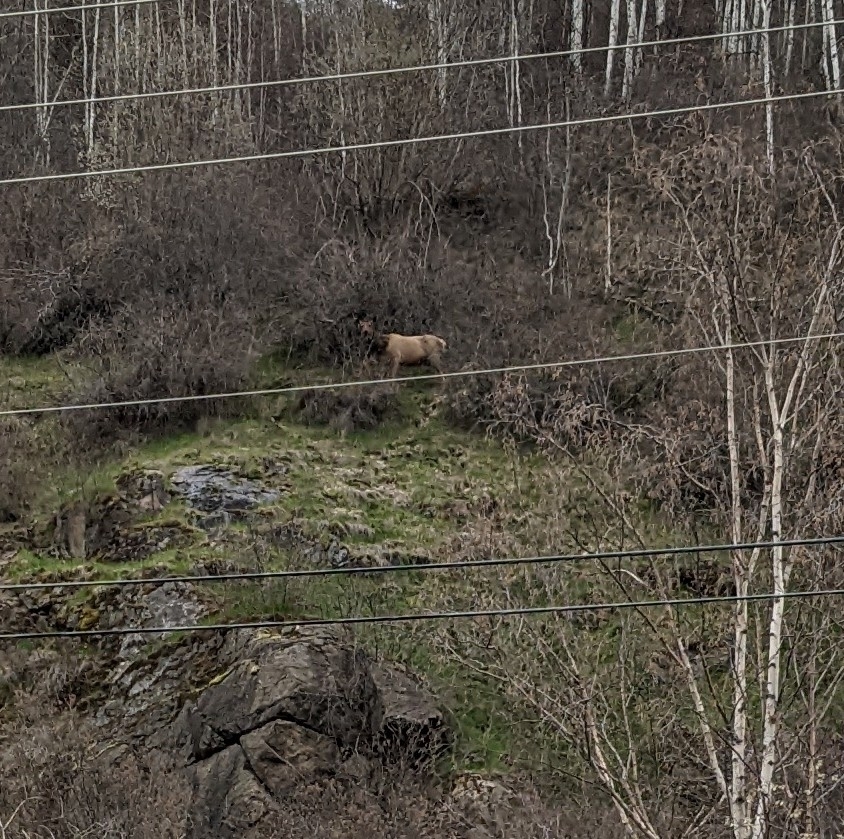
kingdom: Animalia
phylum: Chordata
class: Mammalia
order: Artiodactyla
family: Cervidae
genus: Cervus
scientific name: Cervus elaphus
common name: Red deer
